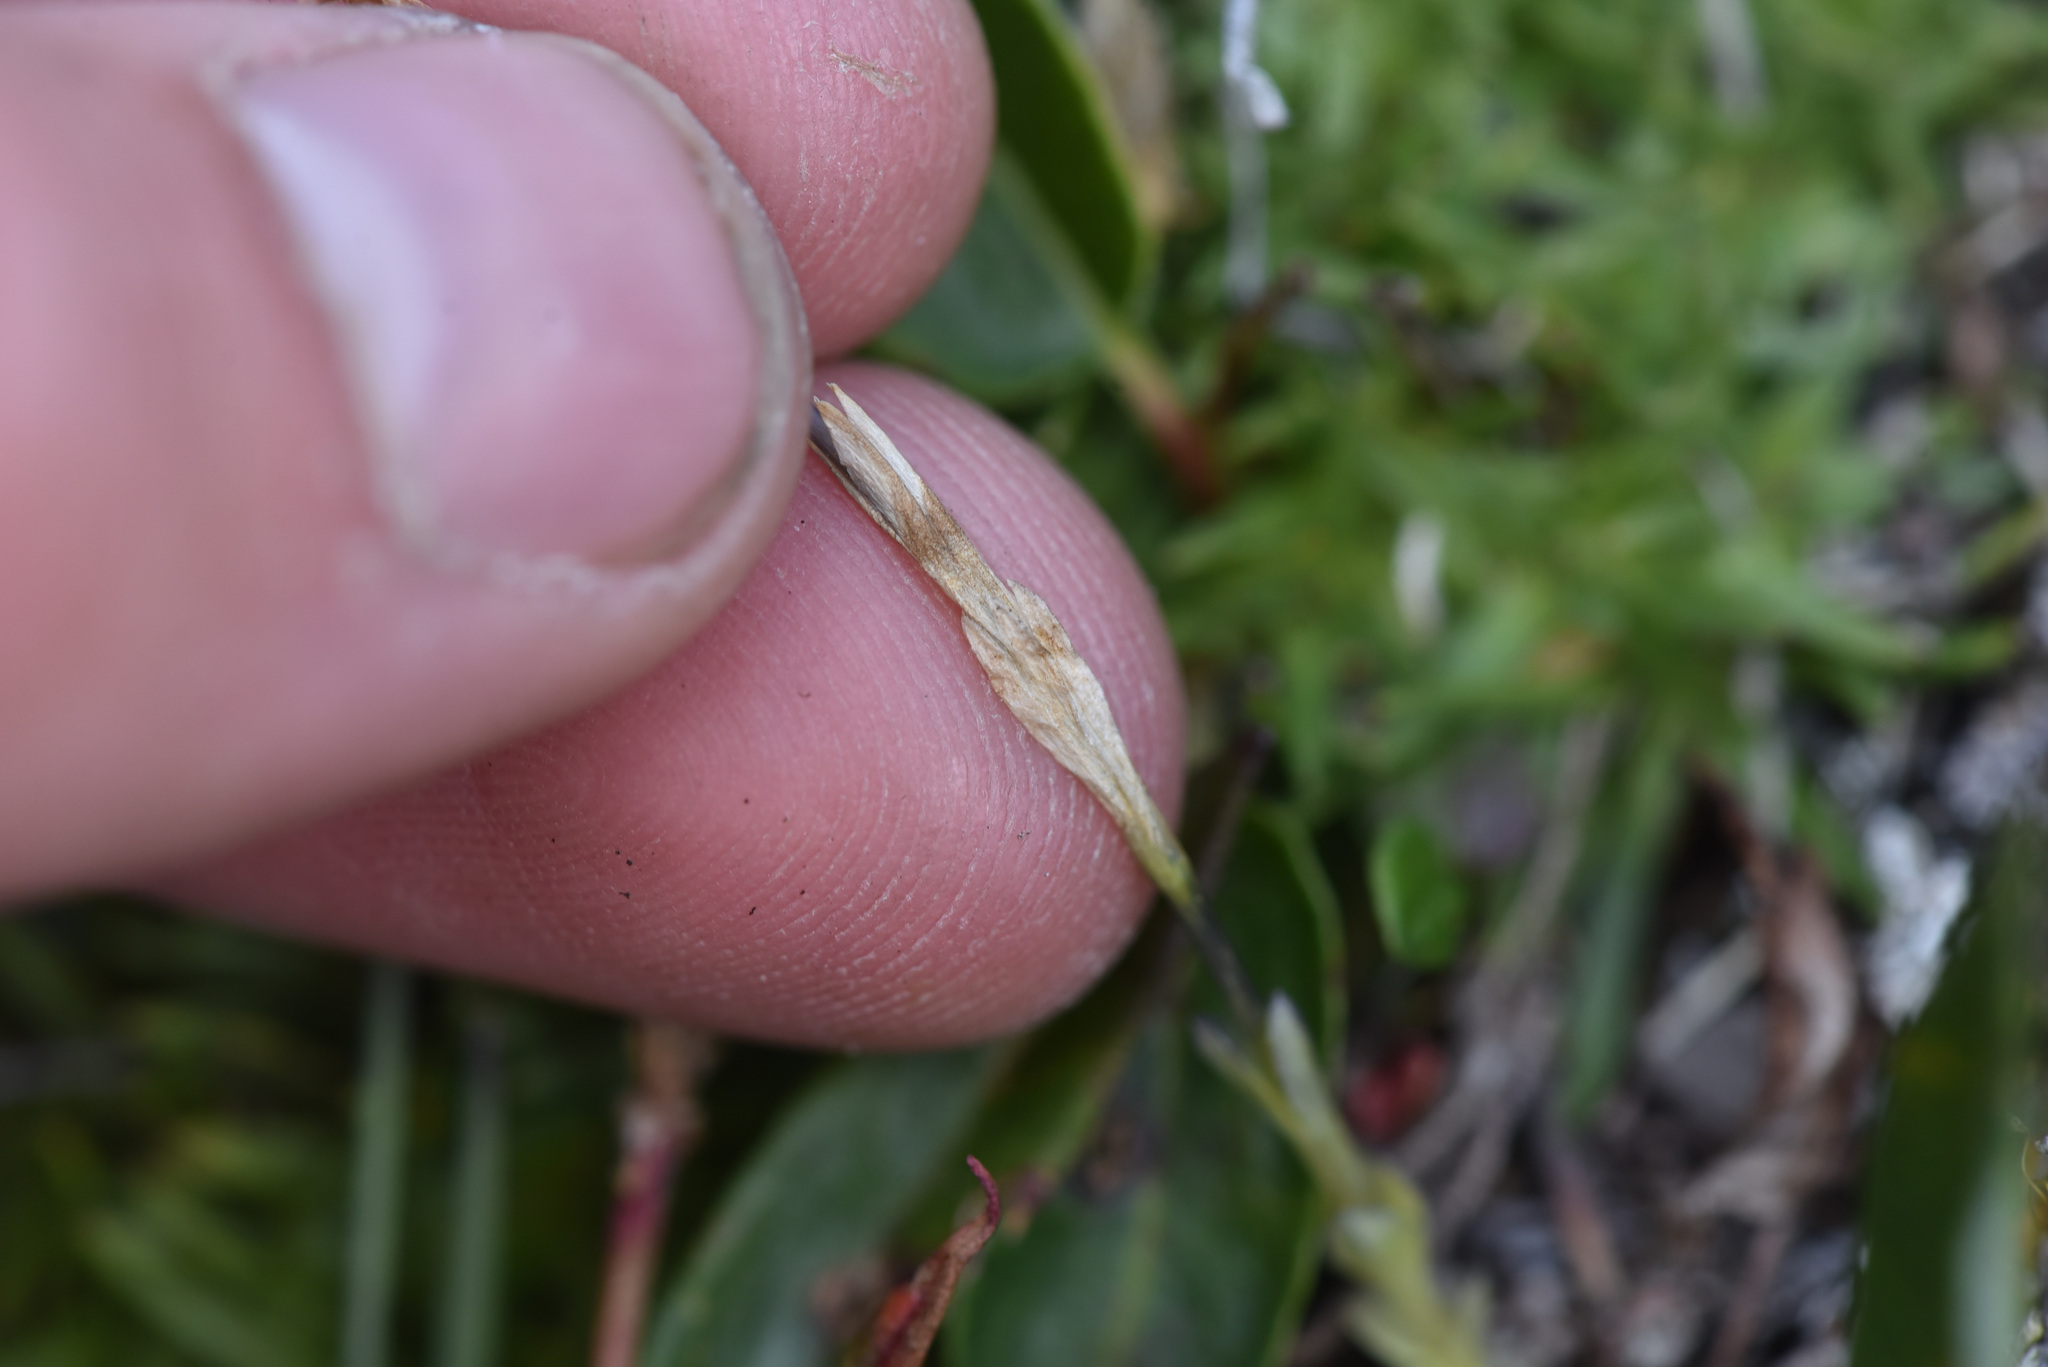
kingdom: Plantae
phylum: Tracheophyta
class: Magnoliopsida
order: Gentianales
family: Gentianaceae
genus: Gentiana
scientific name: Gentiana prostrata
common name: Moss gentian
